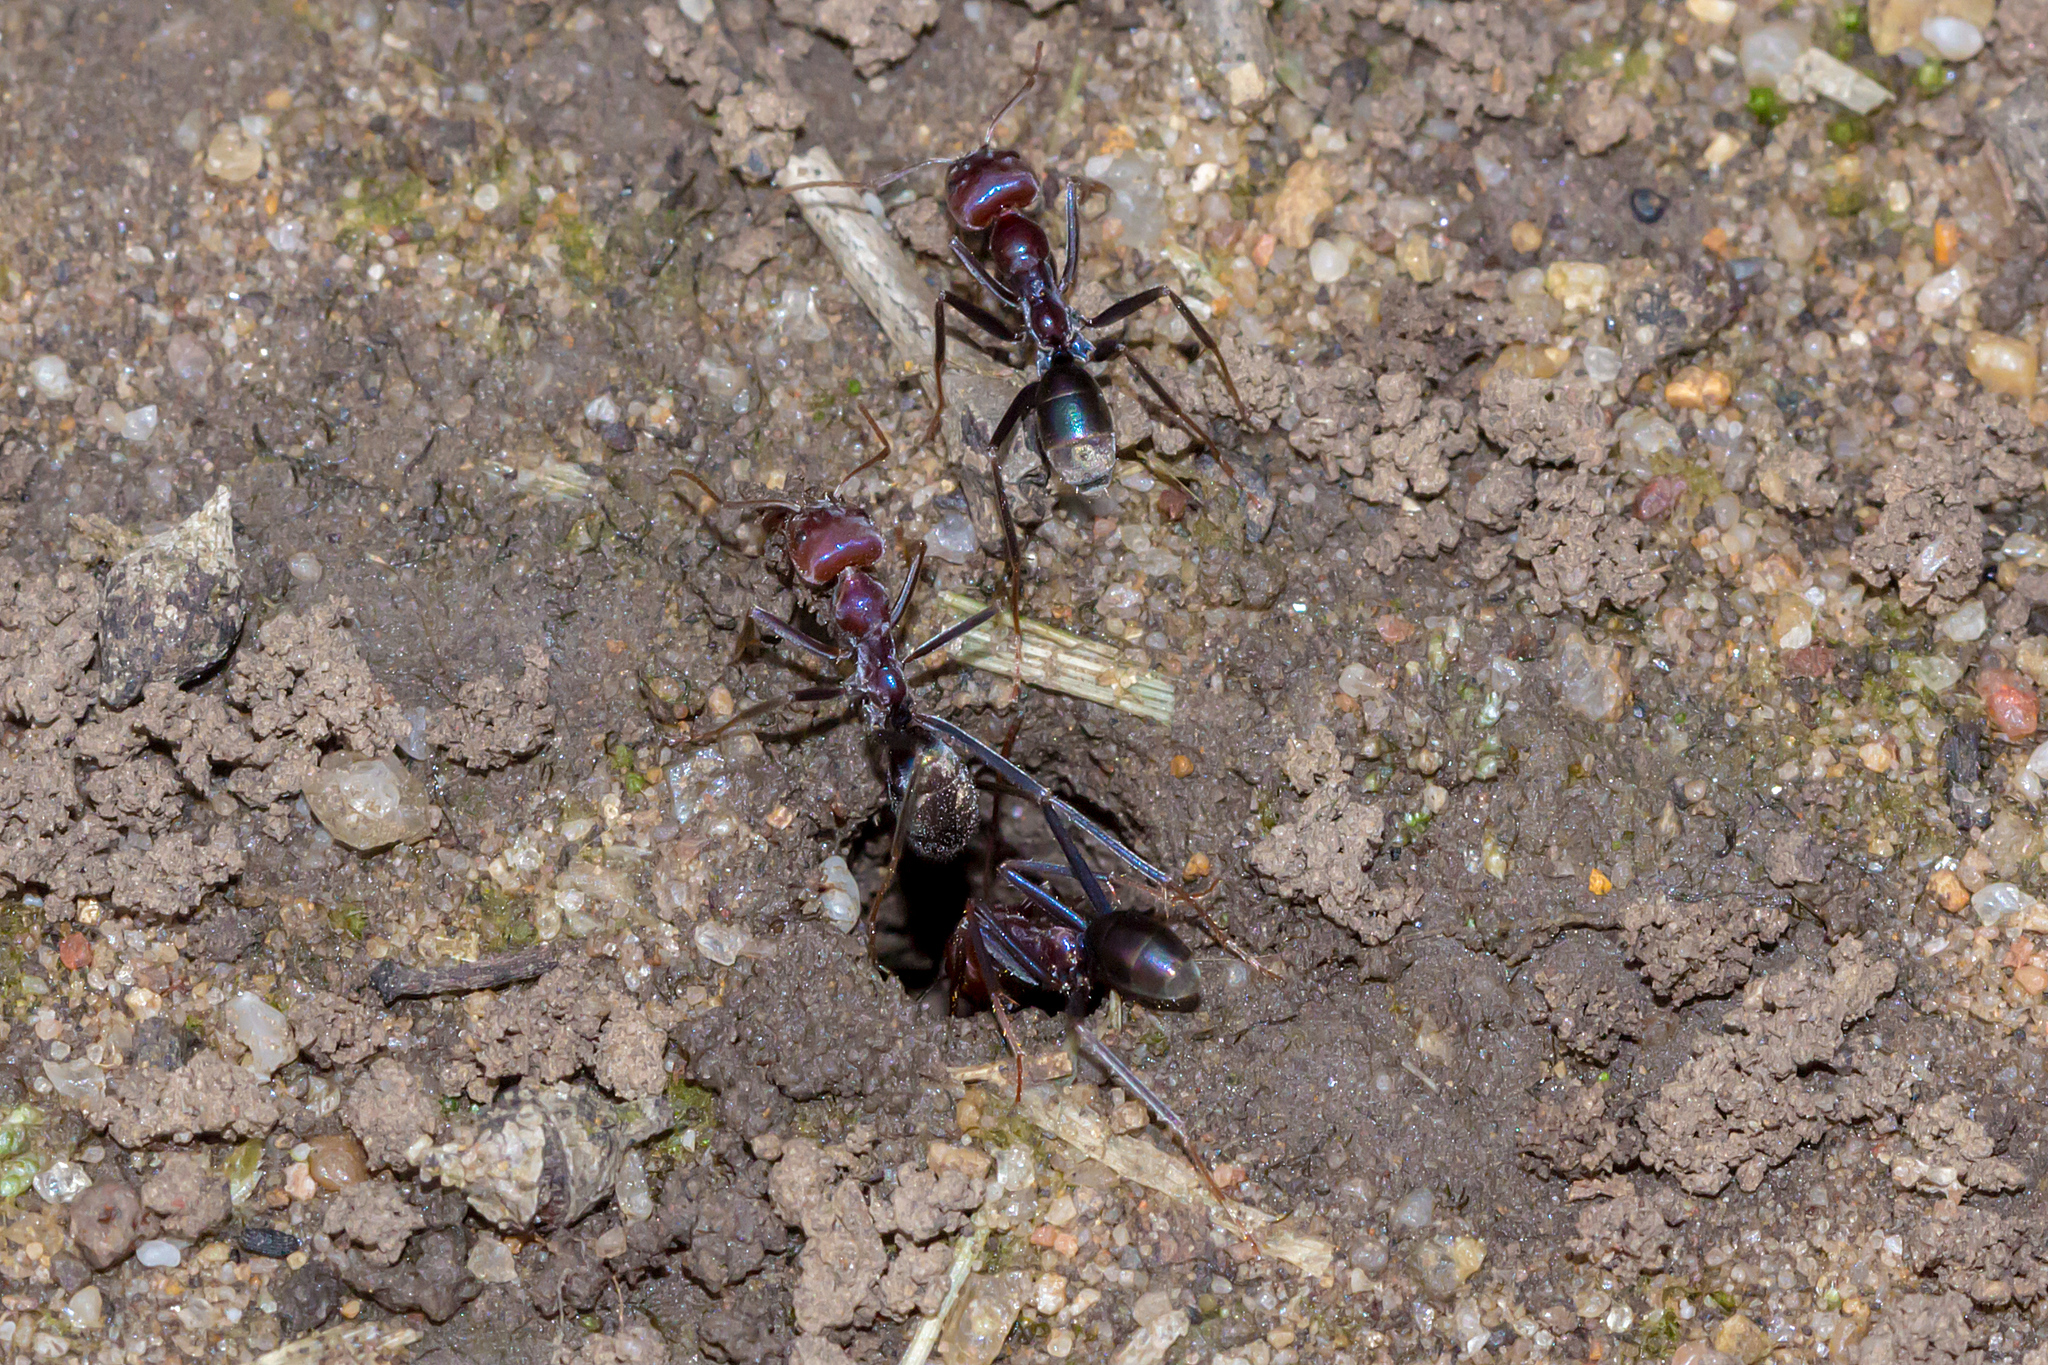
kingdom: Animalia
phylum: Arthropoda
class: Insecta
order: Hymenoptera
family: Formicidae
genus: Iridomyrmex
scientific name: Iridomyrmex purpureus
